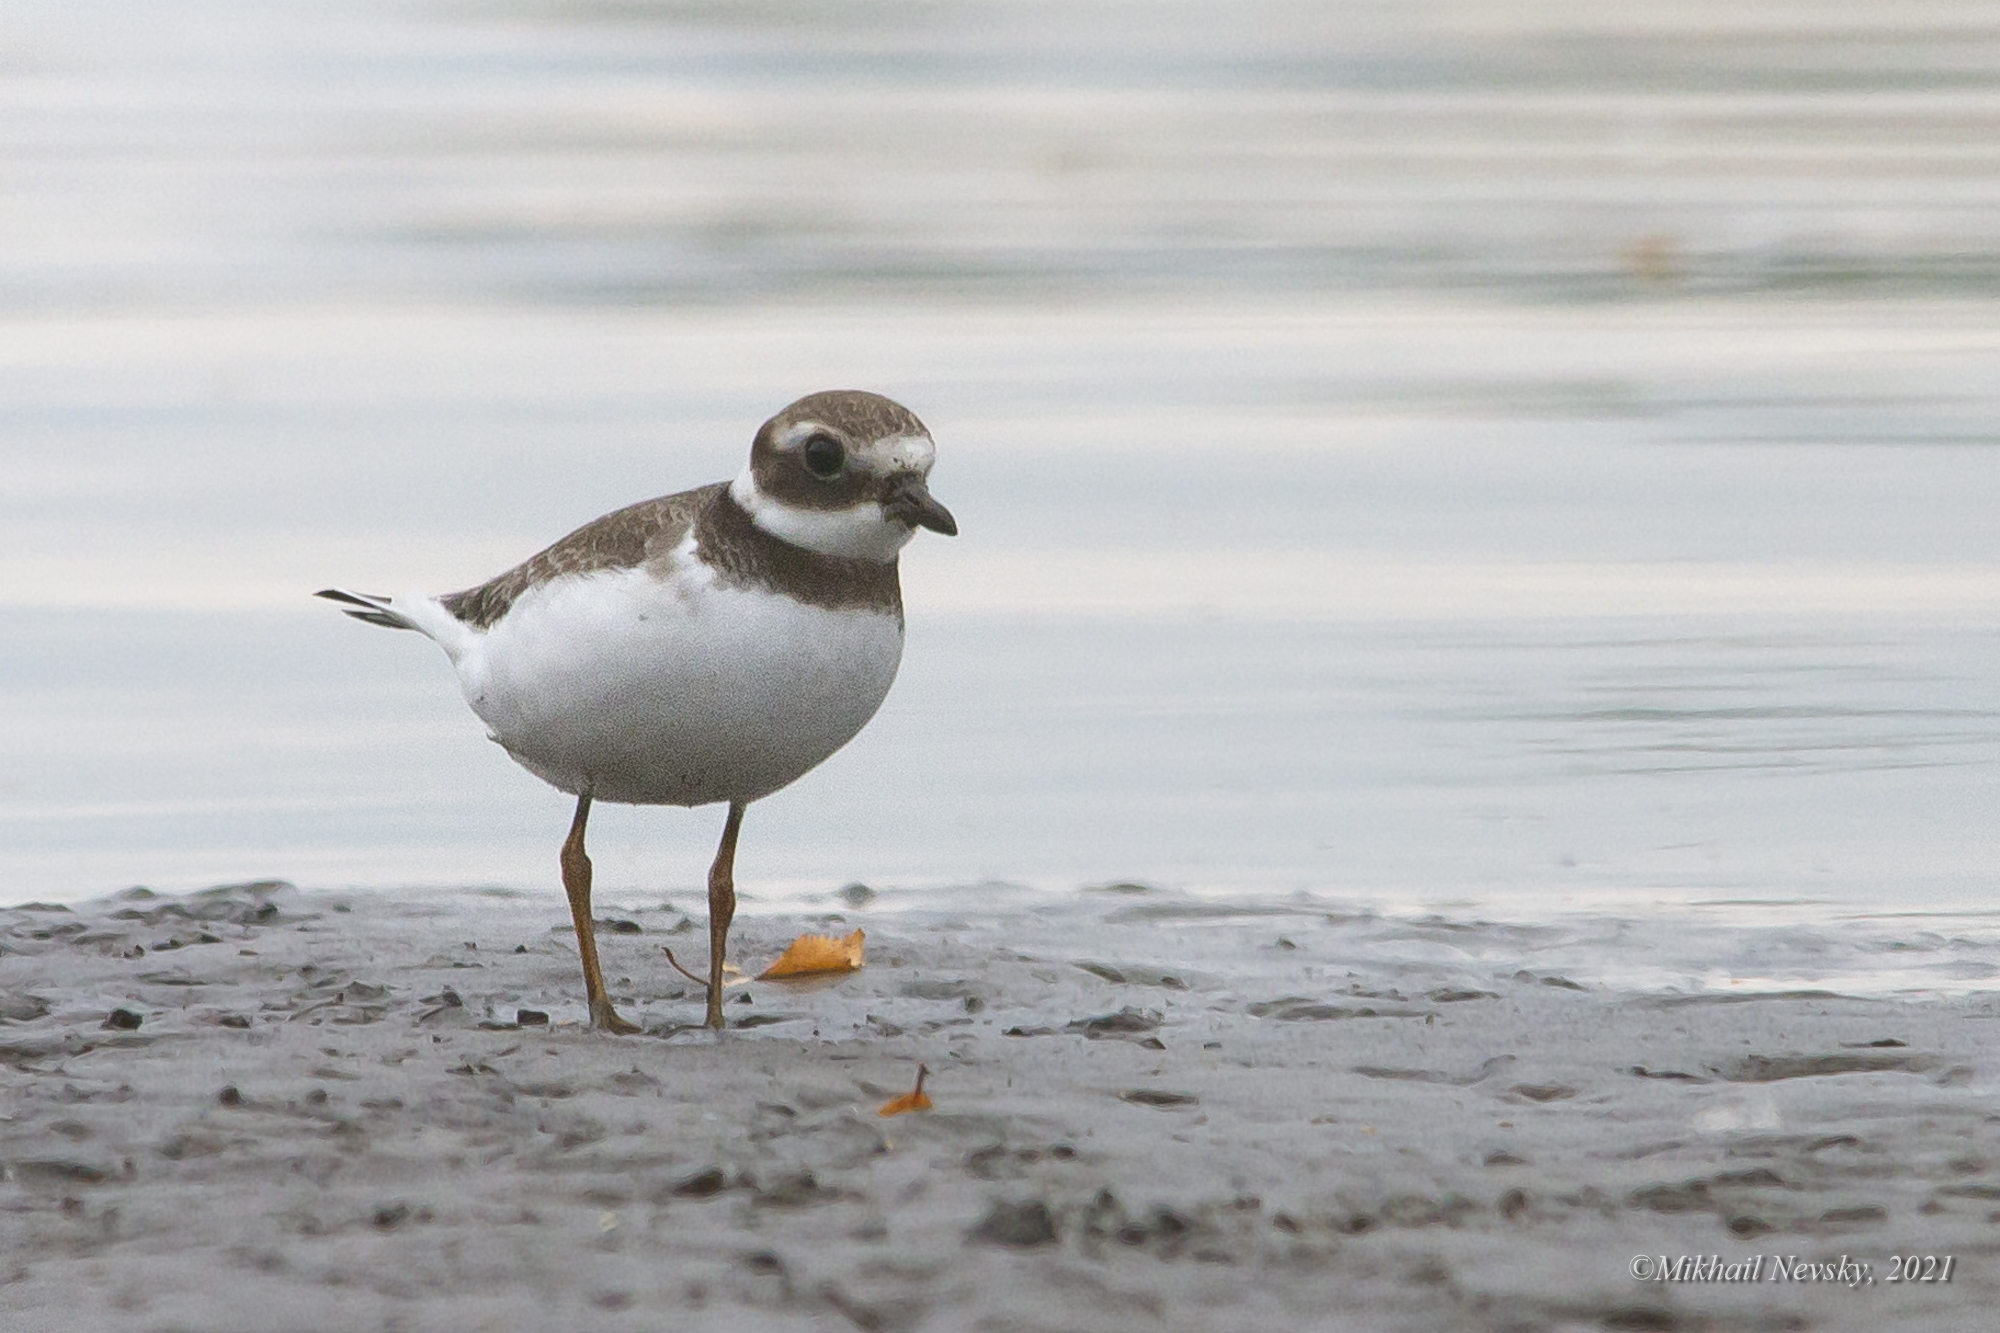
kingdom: Animalia
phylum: Chordata
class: Aves
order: Charadriiformes
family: Charadriidae
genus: Charadrius
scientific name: Charadrius hiaticula
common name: Common ringed plover
